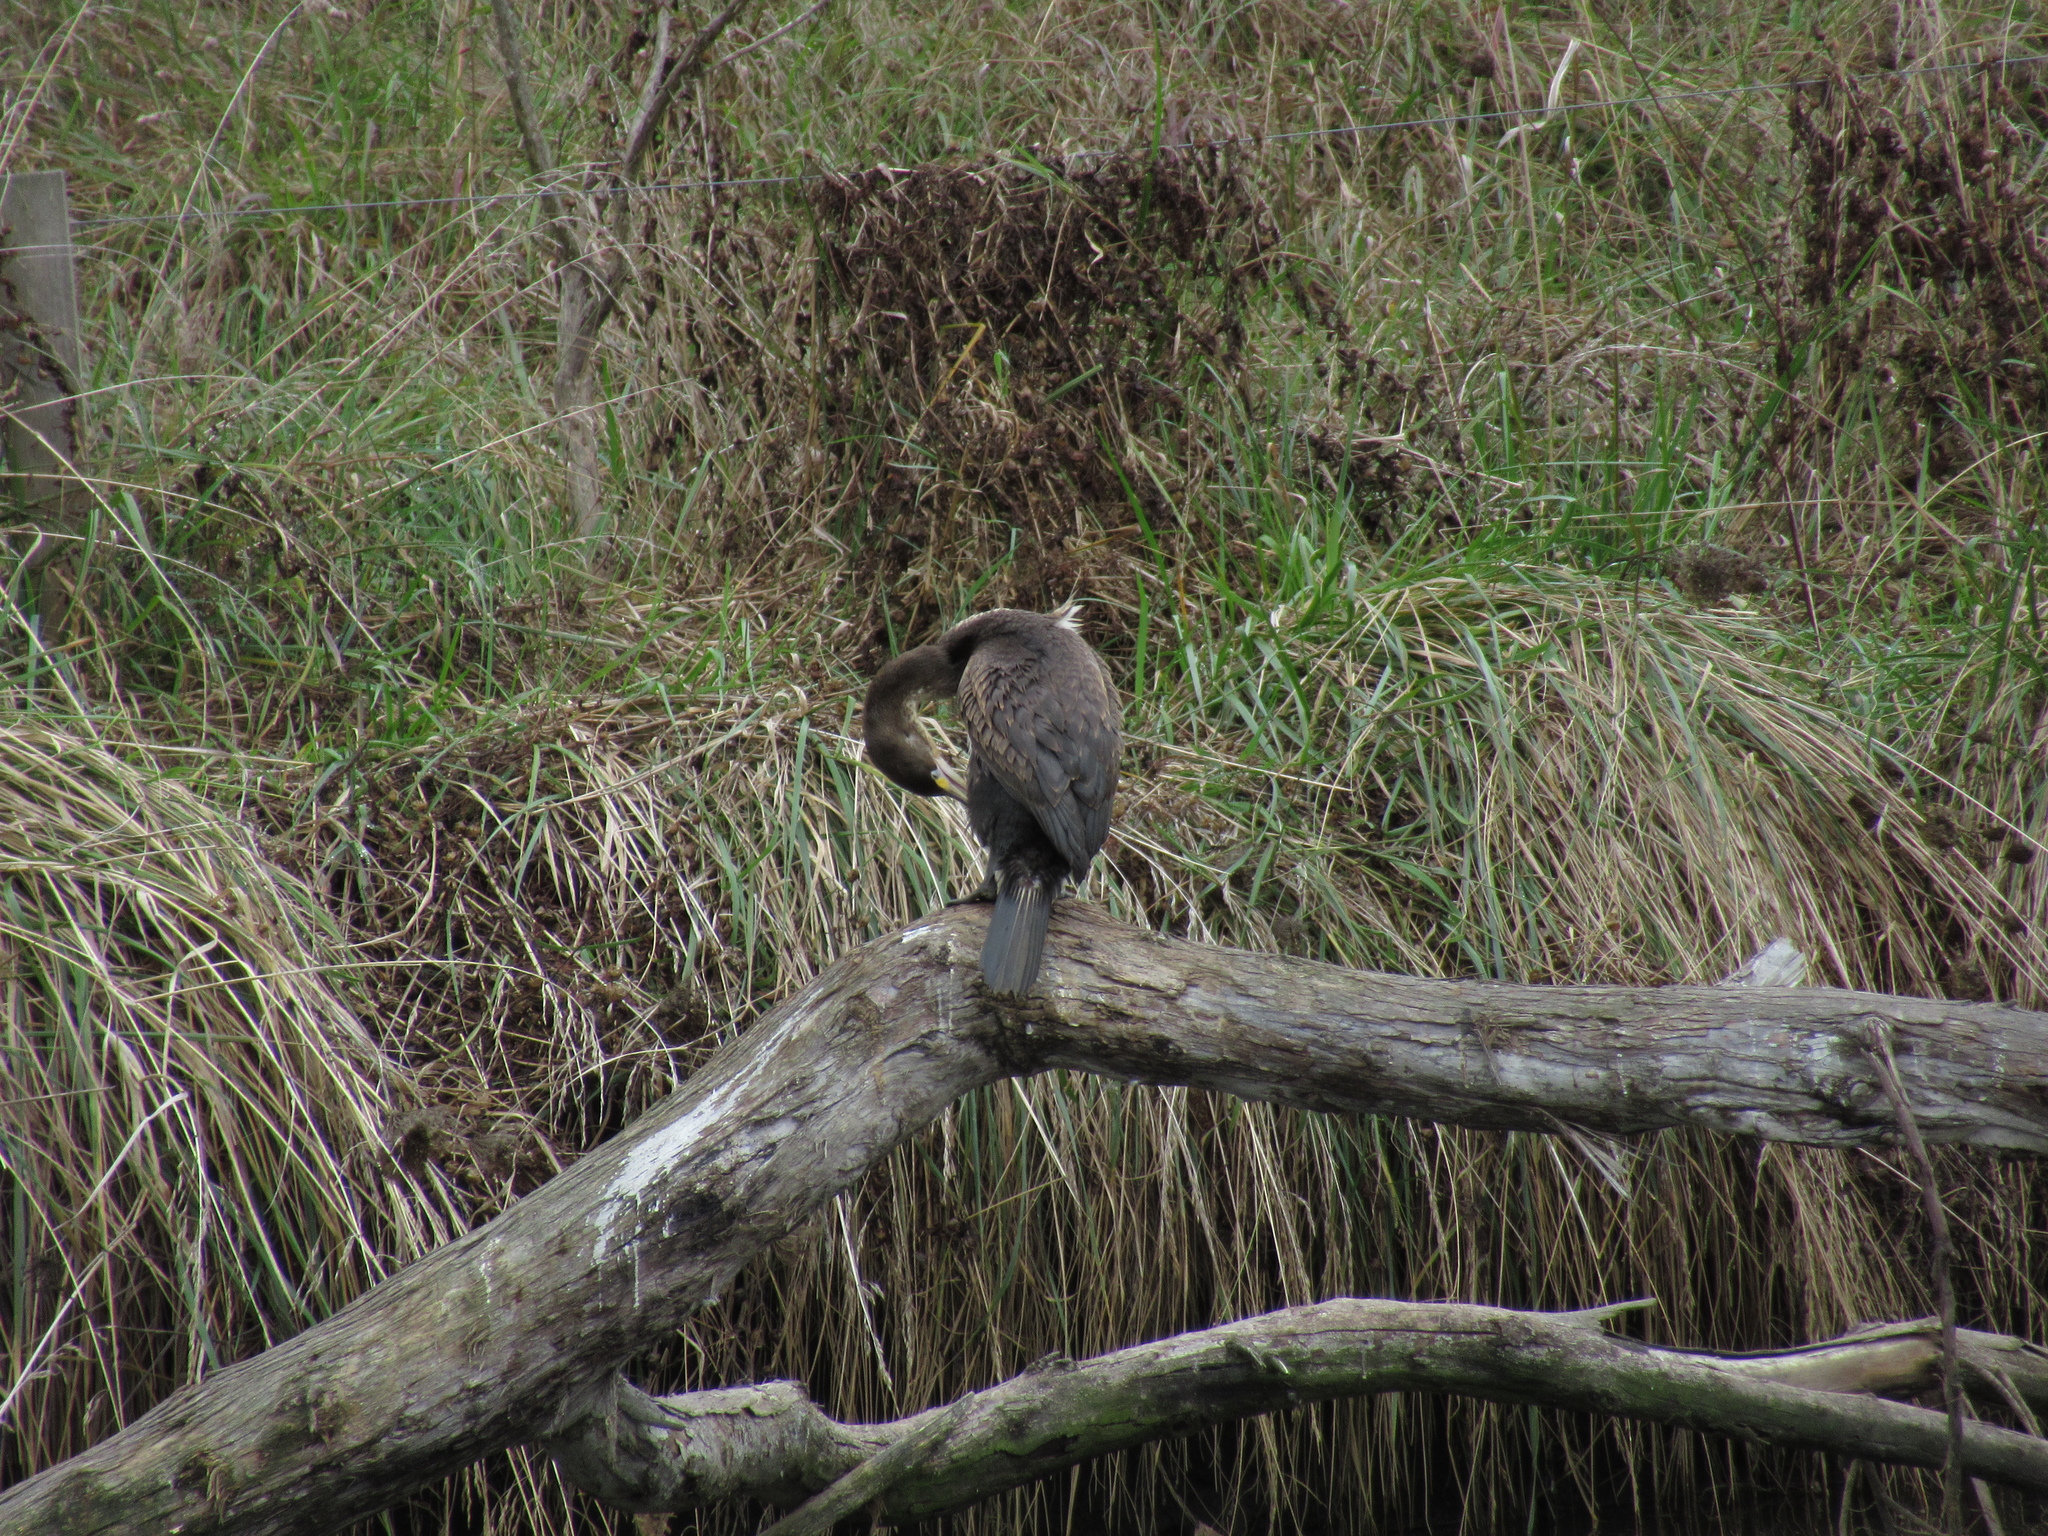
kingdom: Animalia
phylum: Chordata
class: Aves
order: Suliformes
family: Phalacrocoracidae
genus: Phalacrocorax
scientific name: Phalacrocorax varius
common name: Pied cormorant
